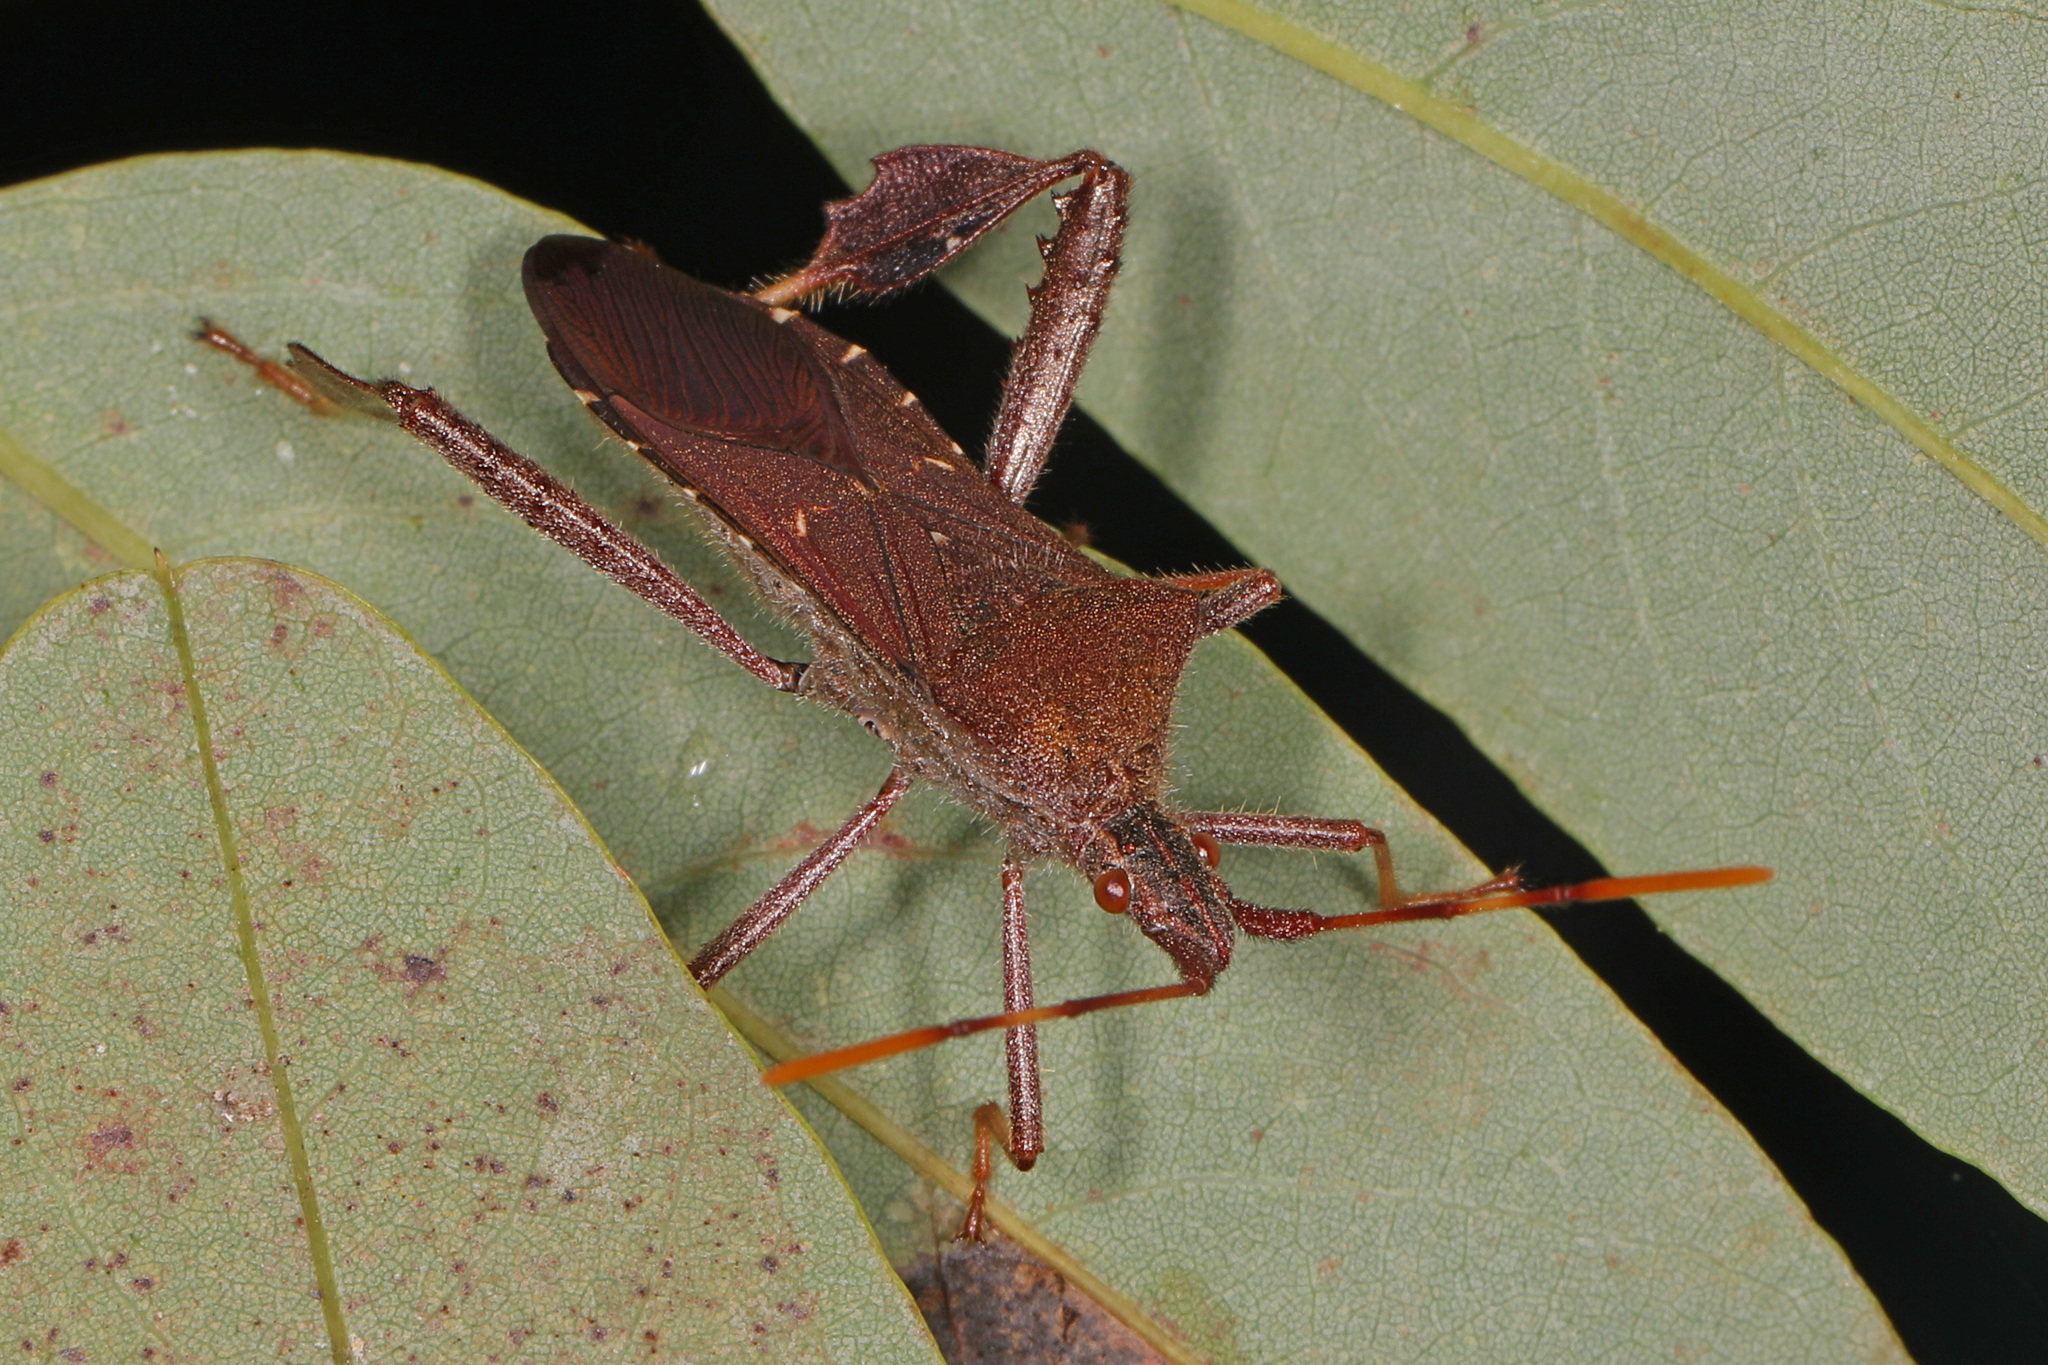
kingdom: Animalia
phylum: Arthropoda
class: Insecta
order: Hemiptera
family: Coreidae
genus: Leptoglossus
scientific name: Leptoglossus oppositus
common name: Northern leaf-footed bug
